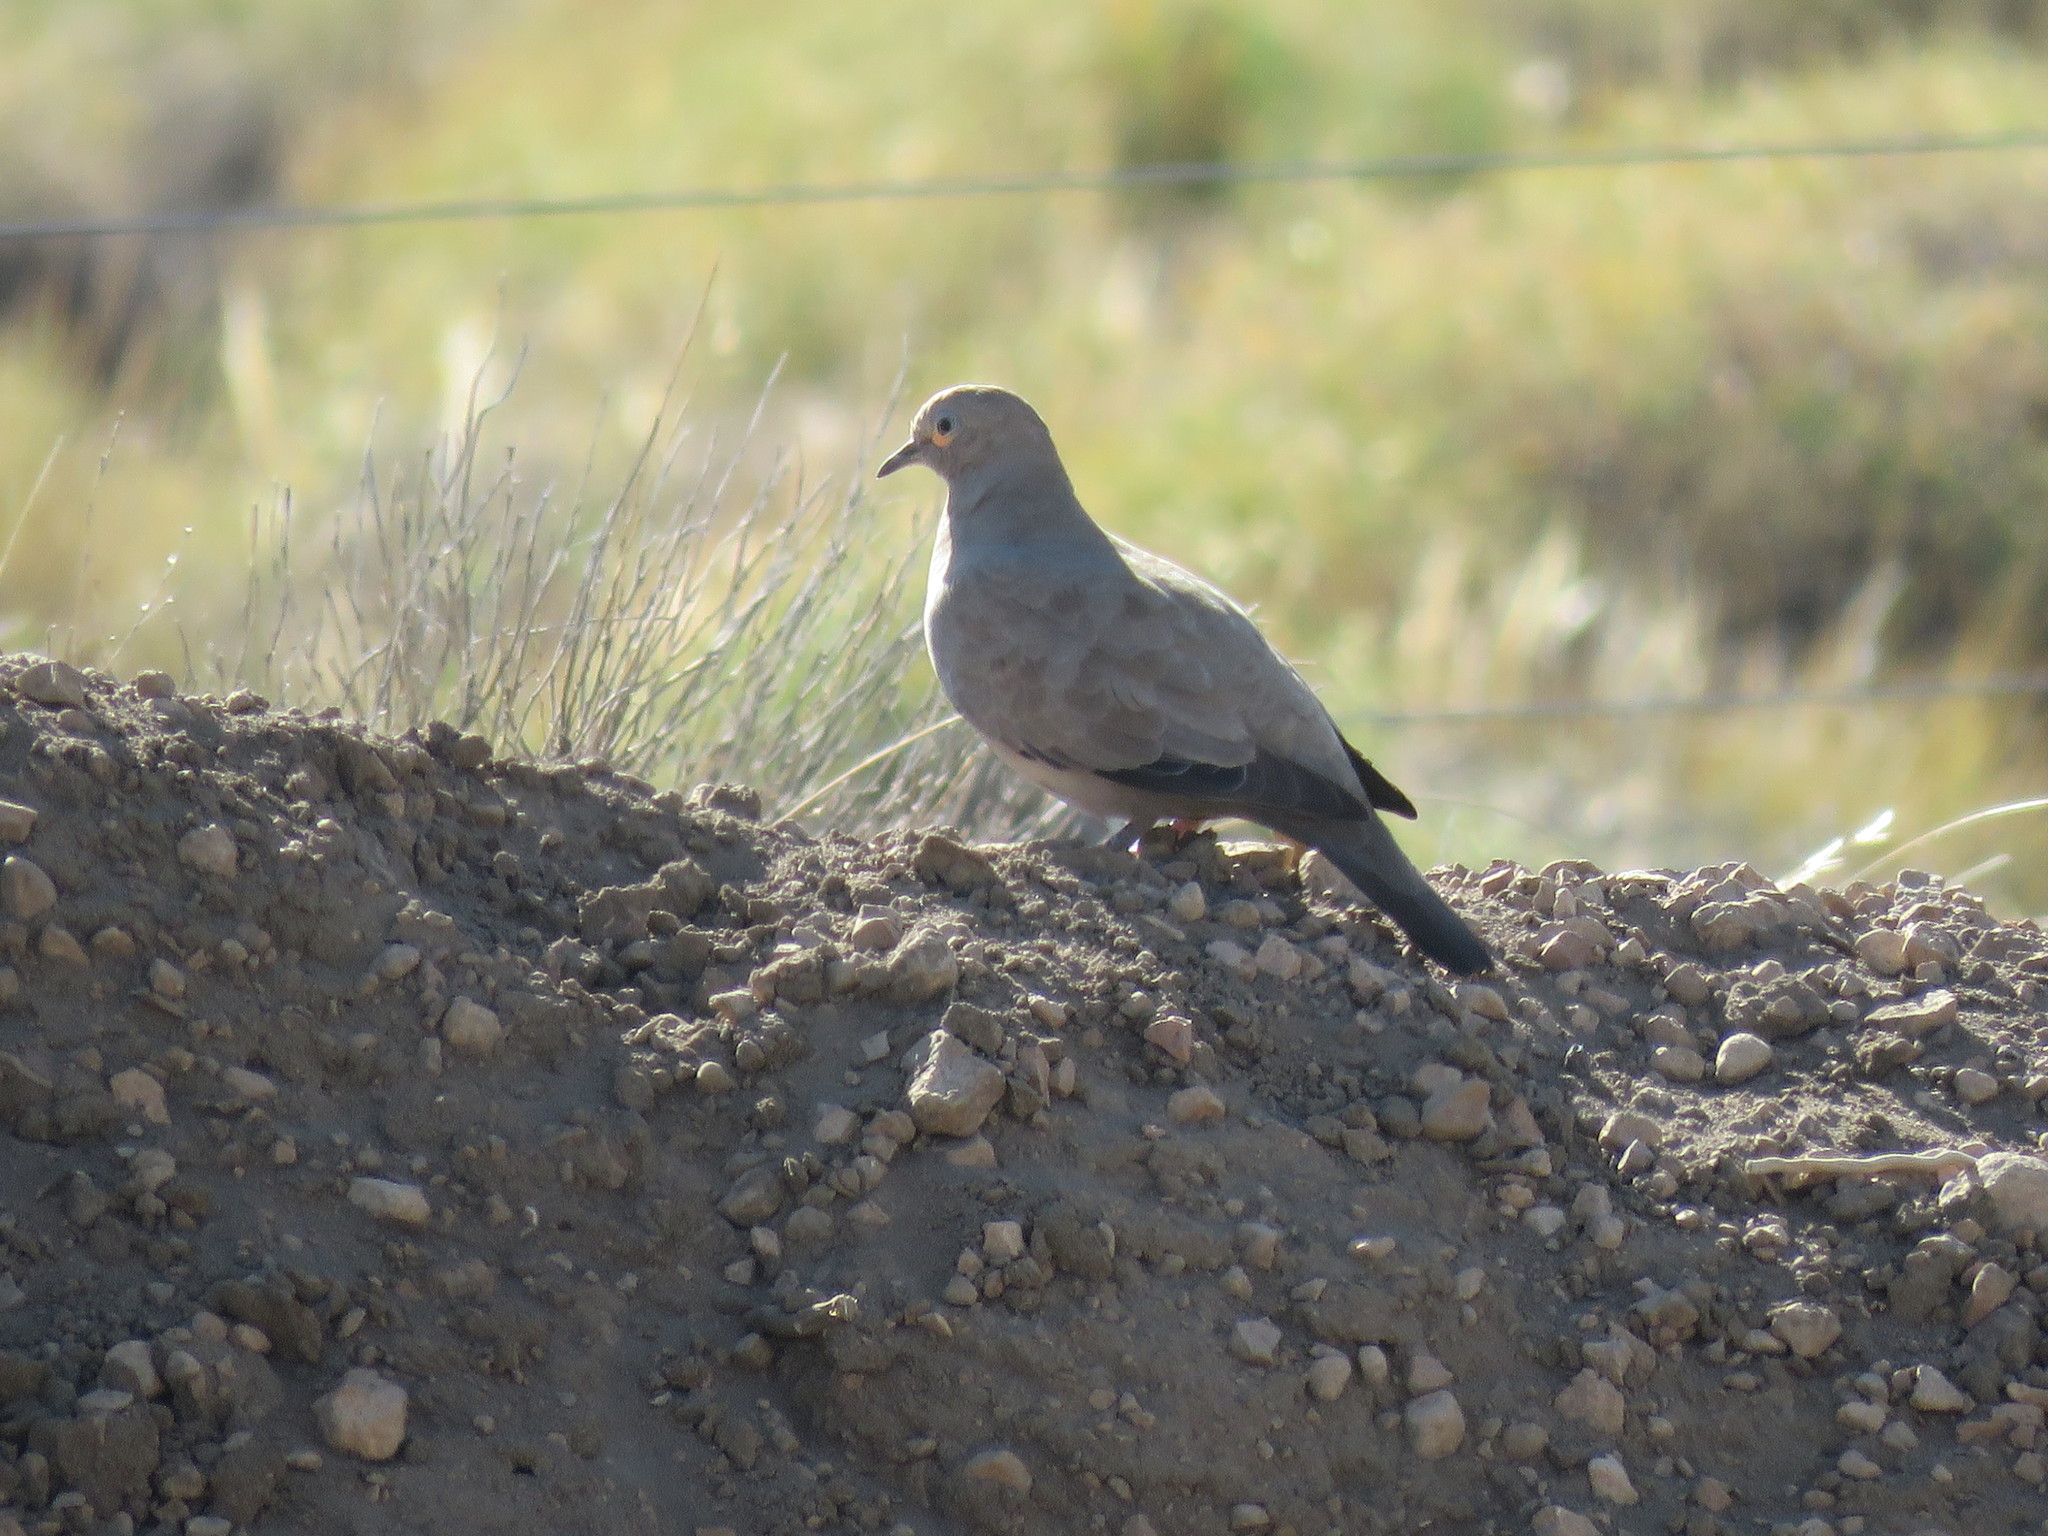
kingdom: Animalia
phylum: Chordata
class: Aves
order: Columbiformes
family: Columbidae
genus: Metriopelia
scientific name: Metriopelia melanoptera
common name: Black-winged ground dove
